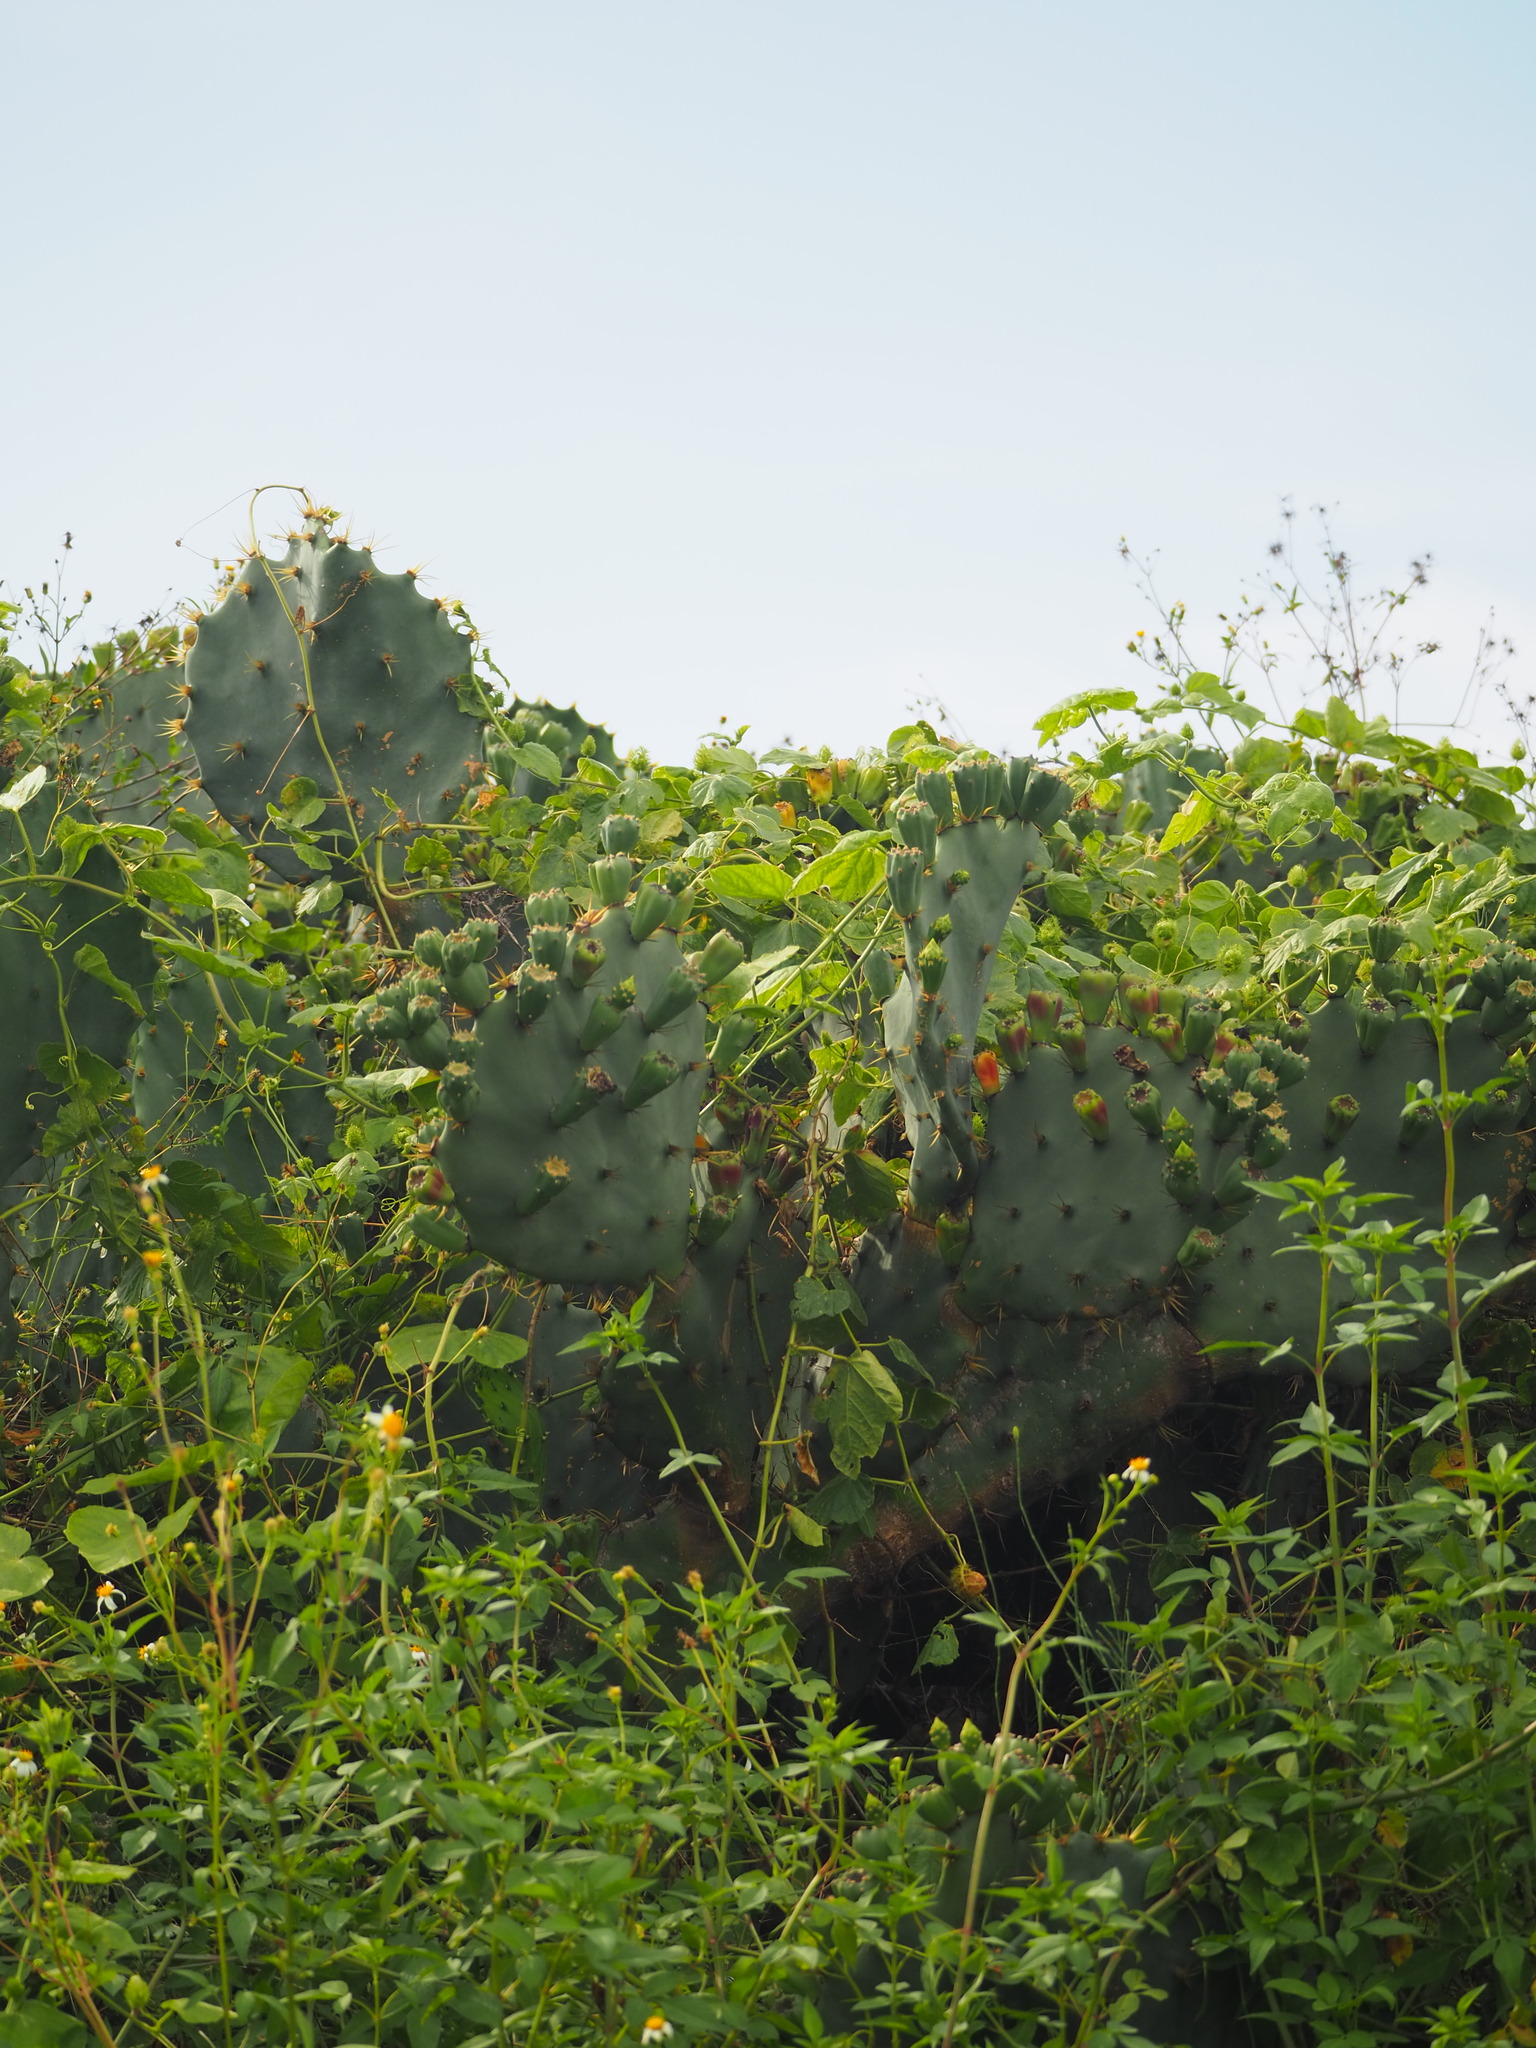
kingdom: Plantae
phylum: Tracheophyta
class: Magnoliopsida
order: Caryophyllales
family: Cactaceae
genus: Opuntia
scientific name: Opuntia dillenii
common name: Sour prickle
